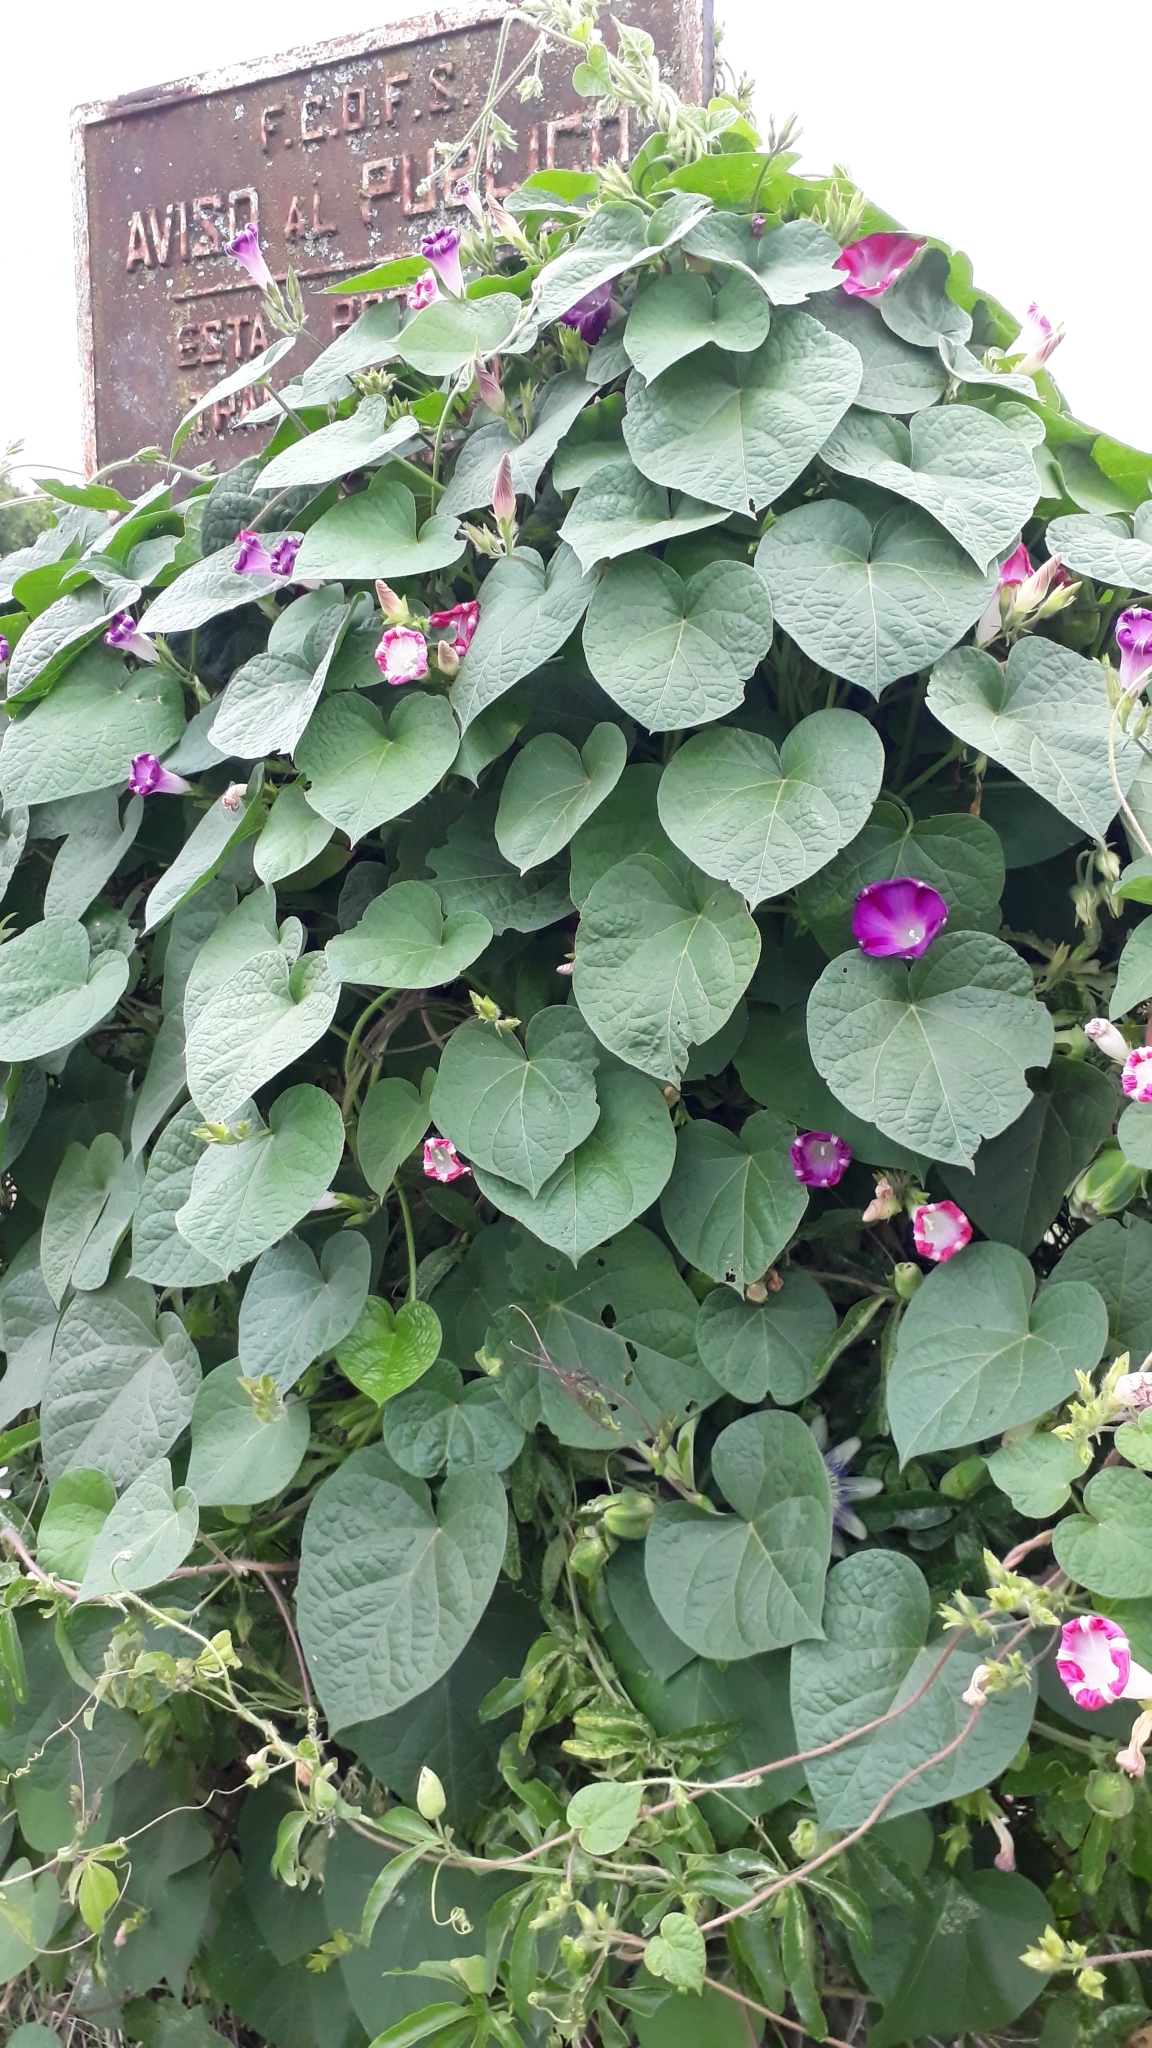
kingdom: Plantae
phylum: Tracheophyta
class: Magnoliopsida
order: Solanales
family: Convolvulaceae
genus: Ipomoea
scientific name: Ipomoea purpurea
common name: Common morning-glory
